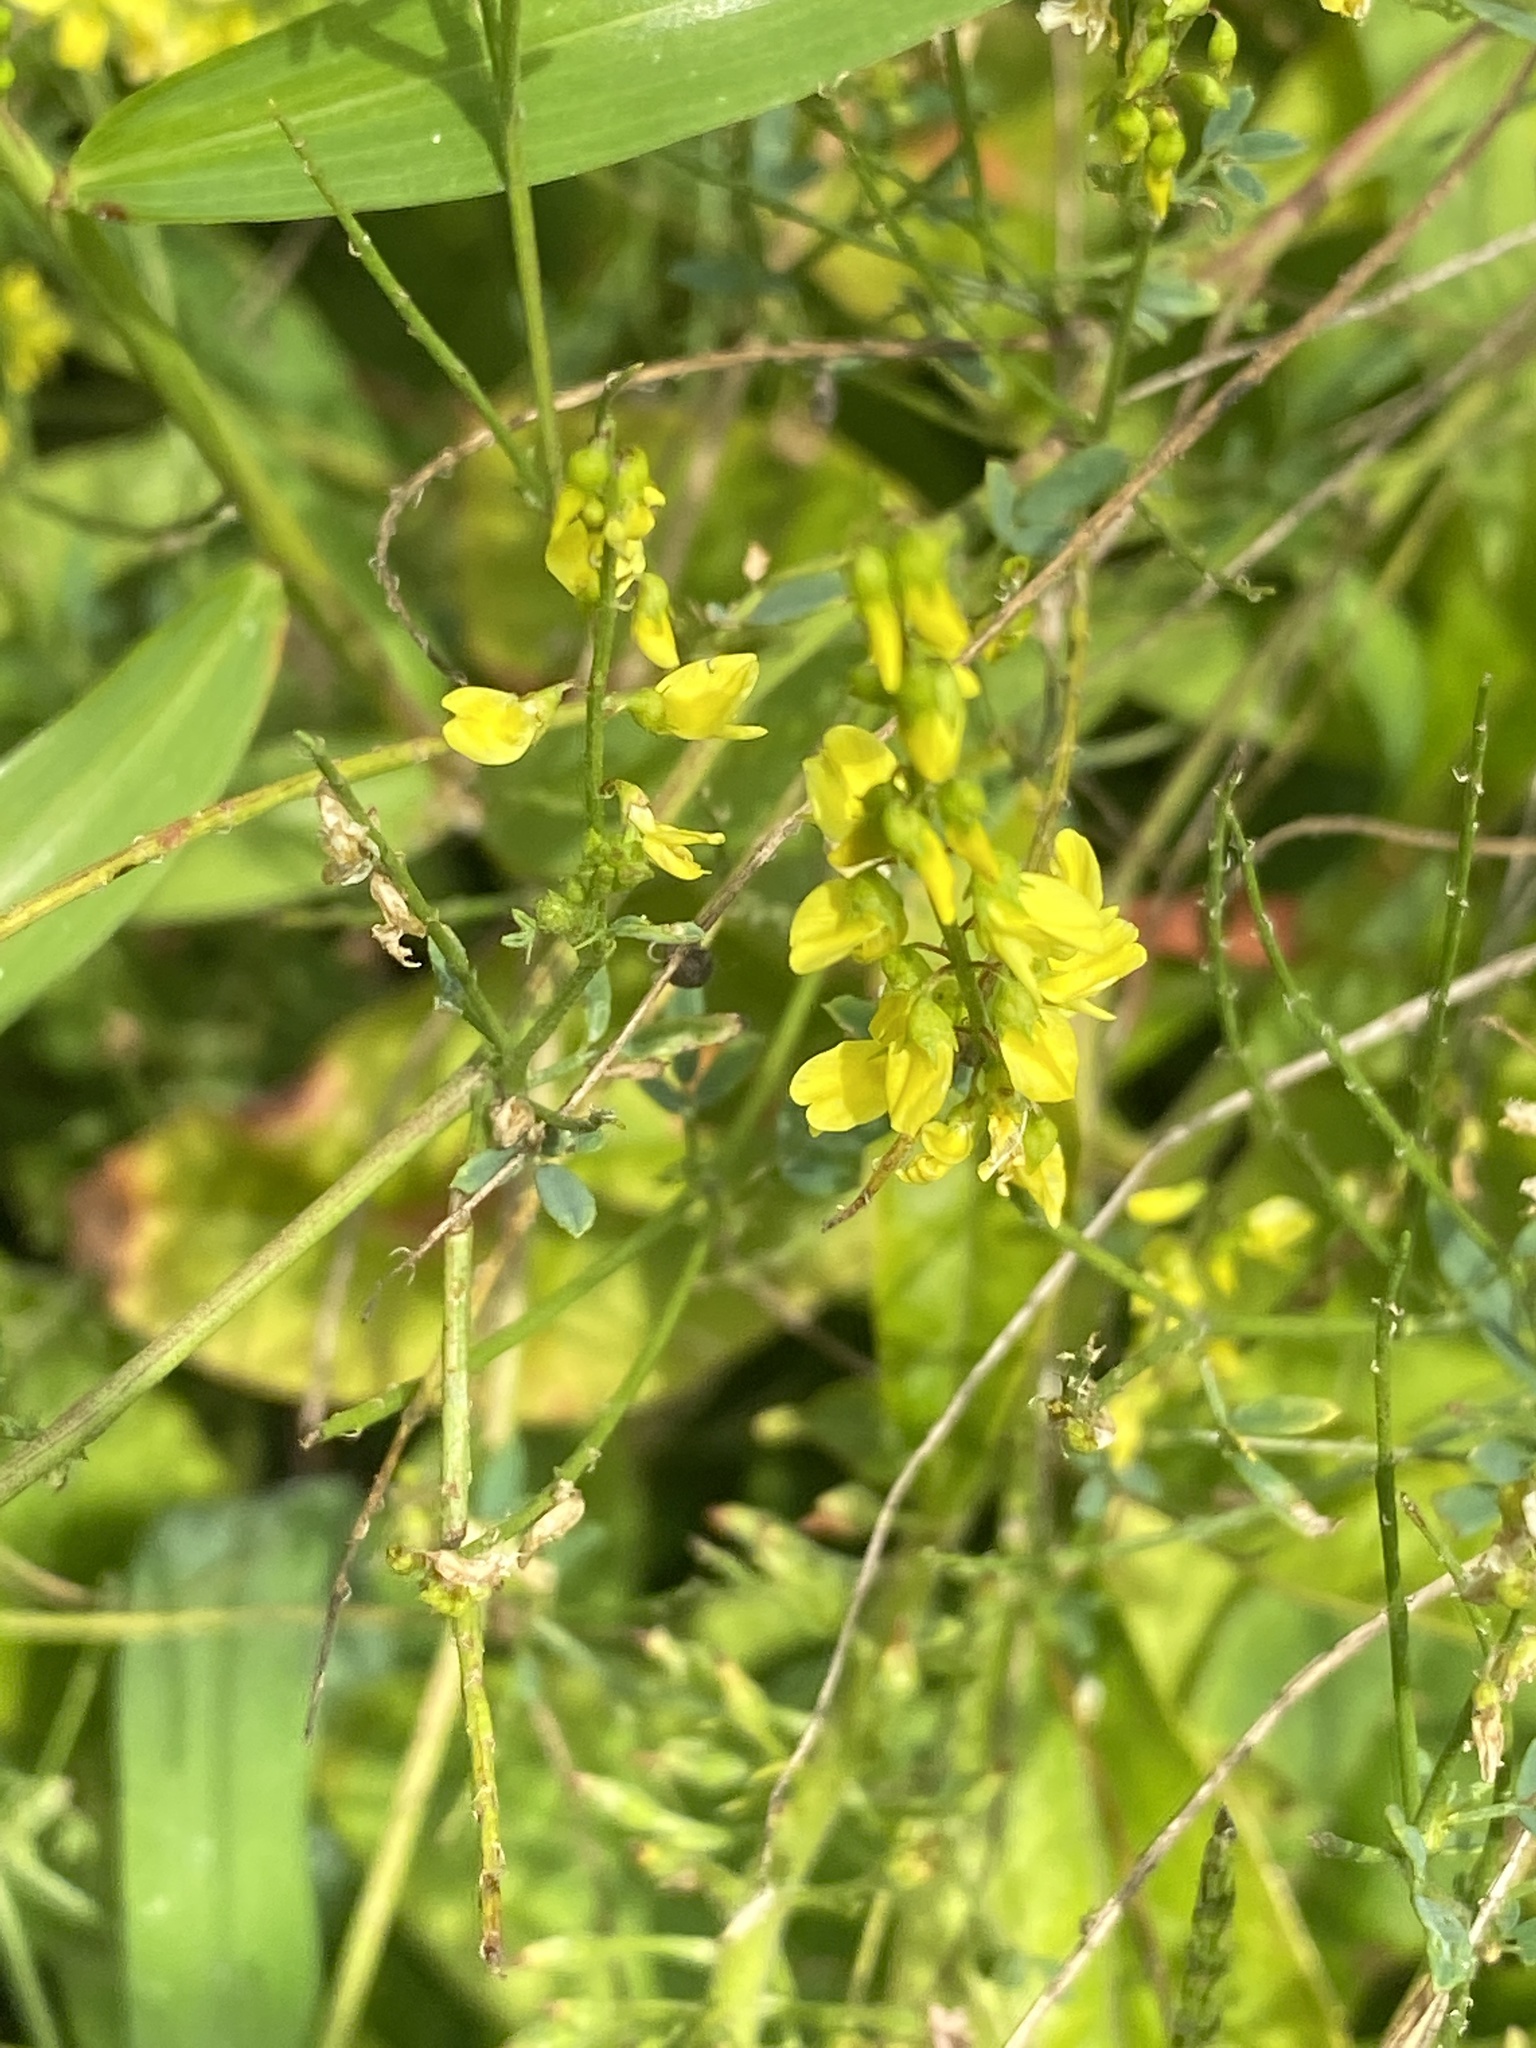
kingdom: Plantae
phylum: Tracheophyta
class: Magnoliopsida
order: Fabales
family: Fabaceae
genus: Melilotus
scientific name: Melilotus officinalis
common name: Sweetclover
